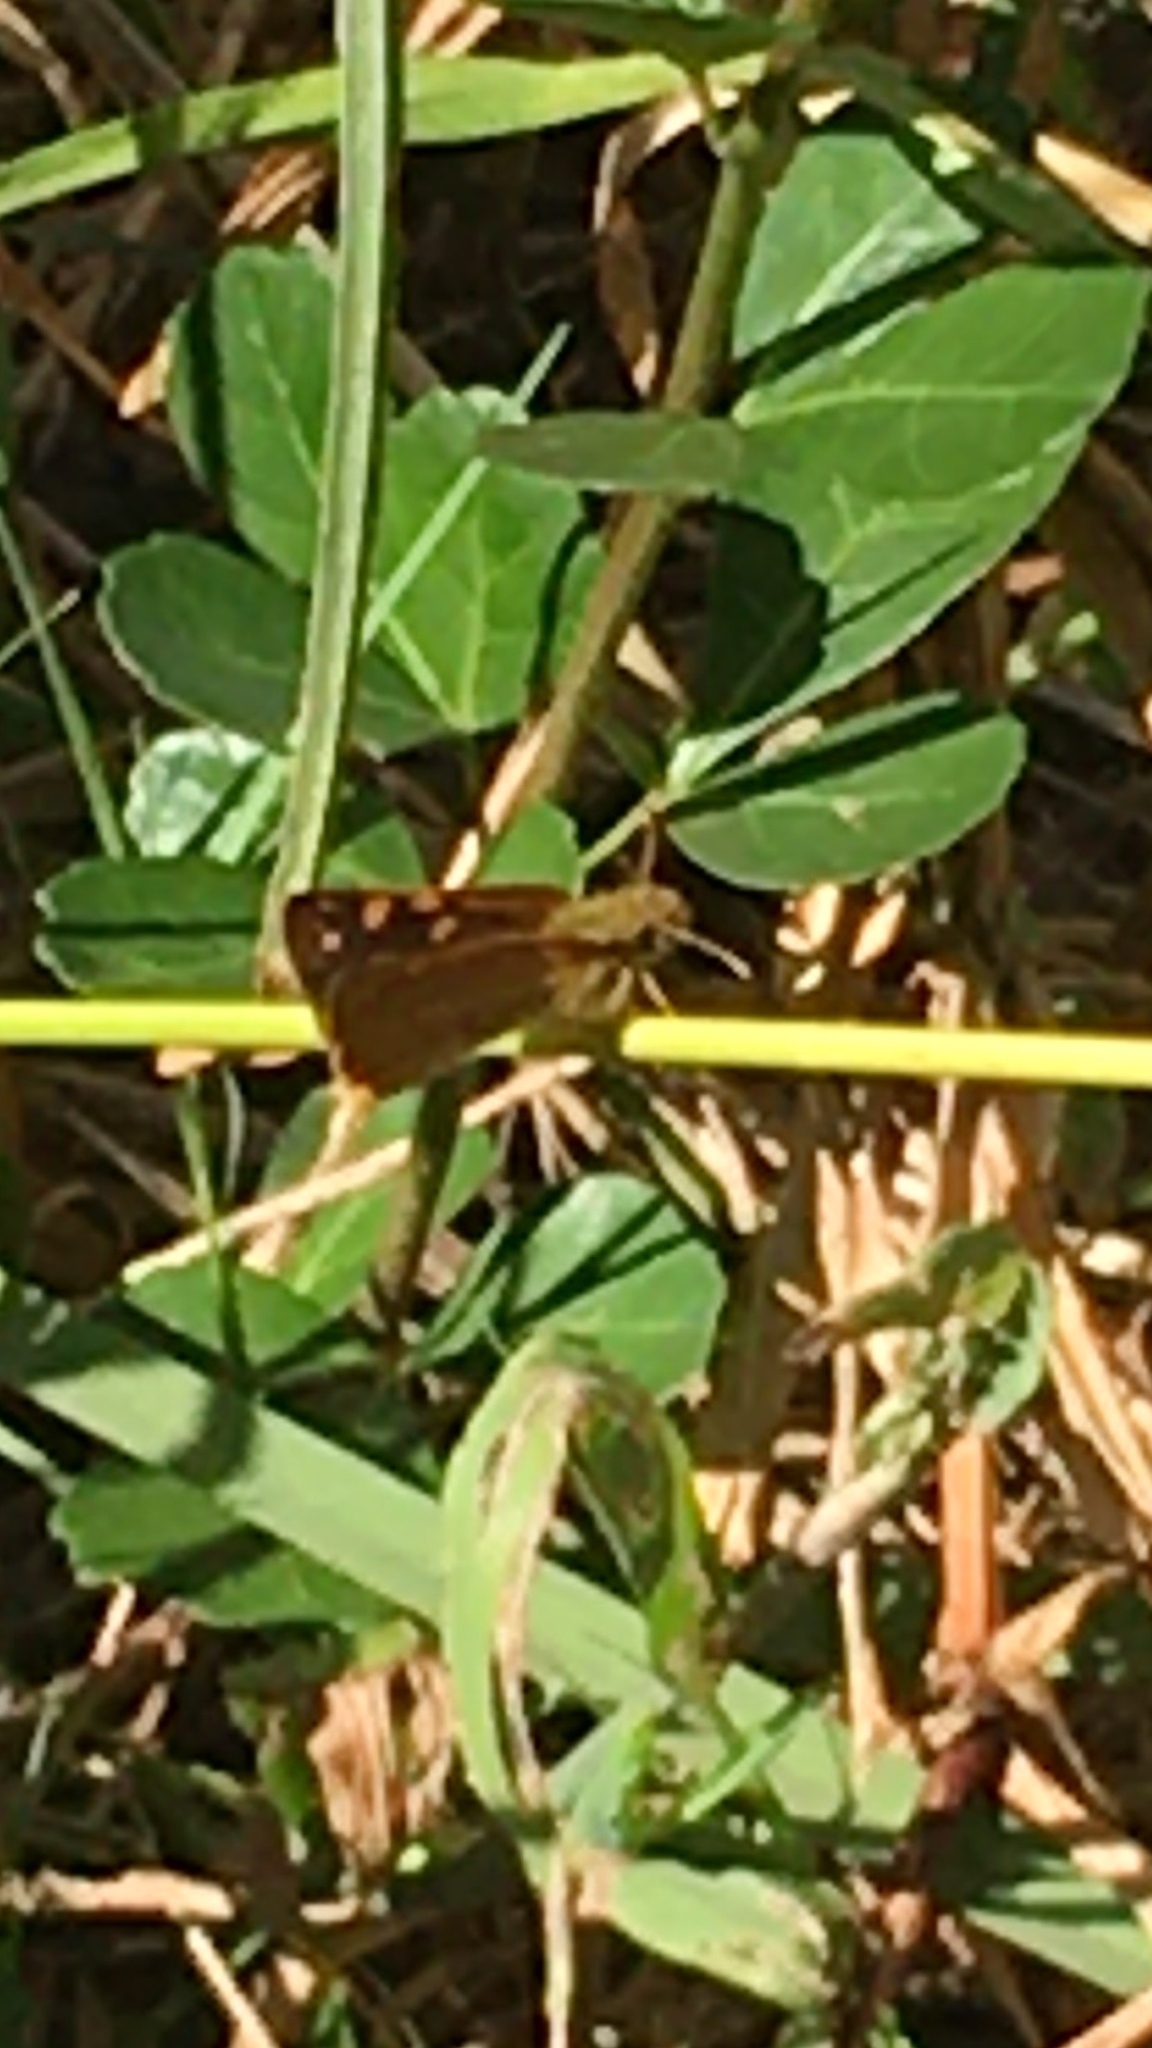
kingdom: Animalia
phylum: Arthropoda
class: Insecta
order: Lepidoptera
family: Hesperiidae
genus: Metisella
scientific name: Metisella malgacha
